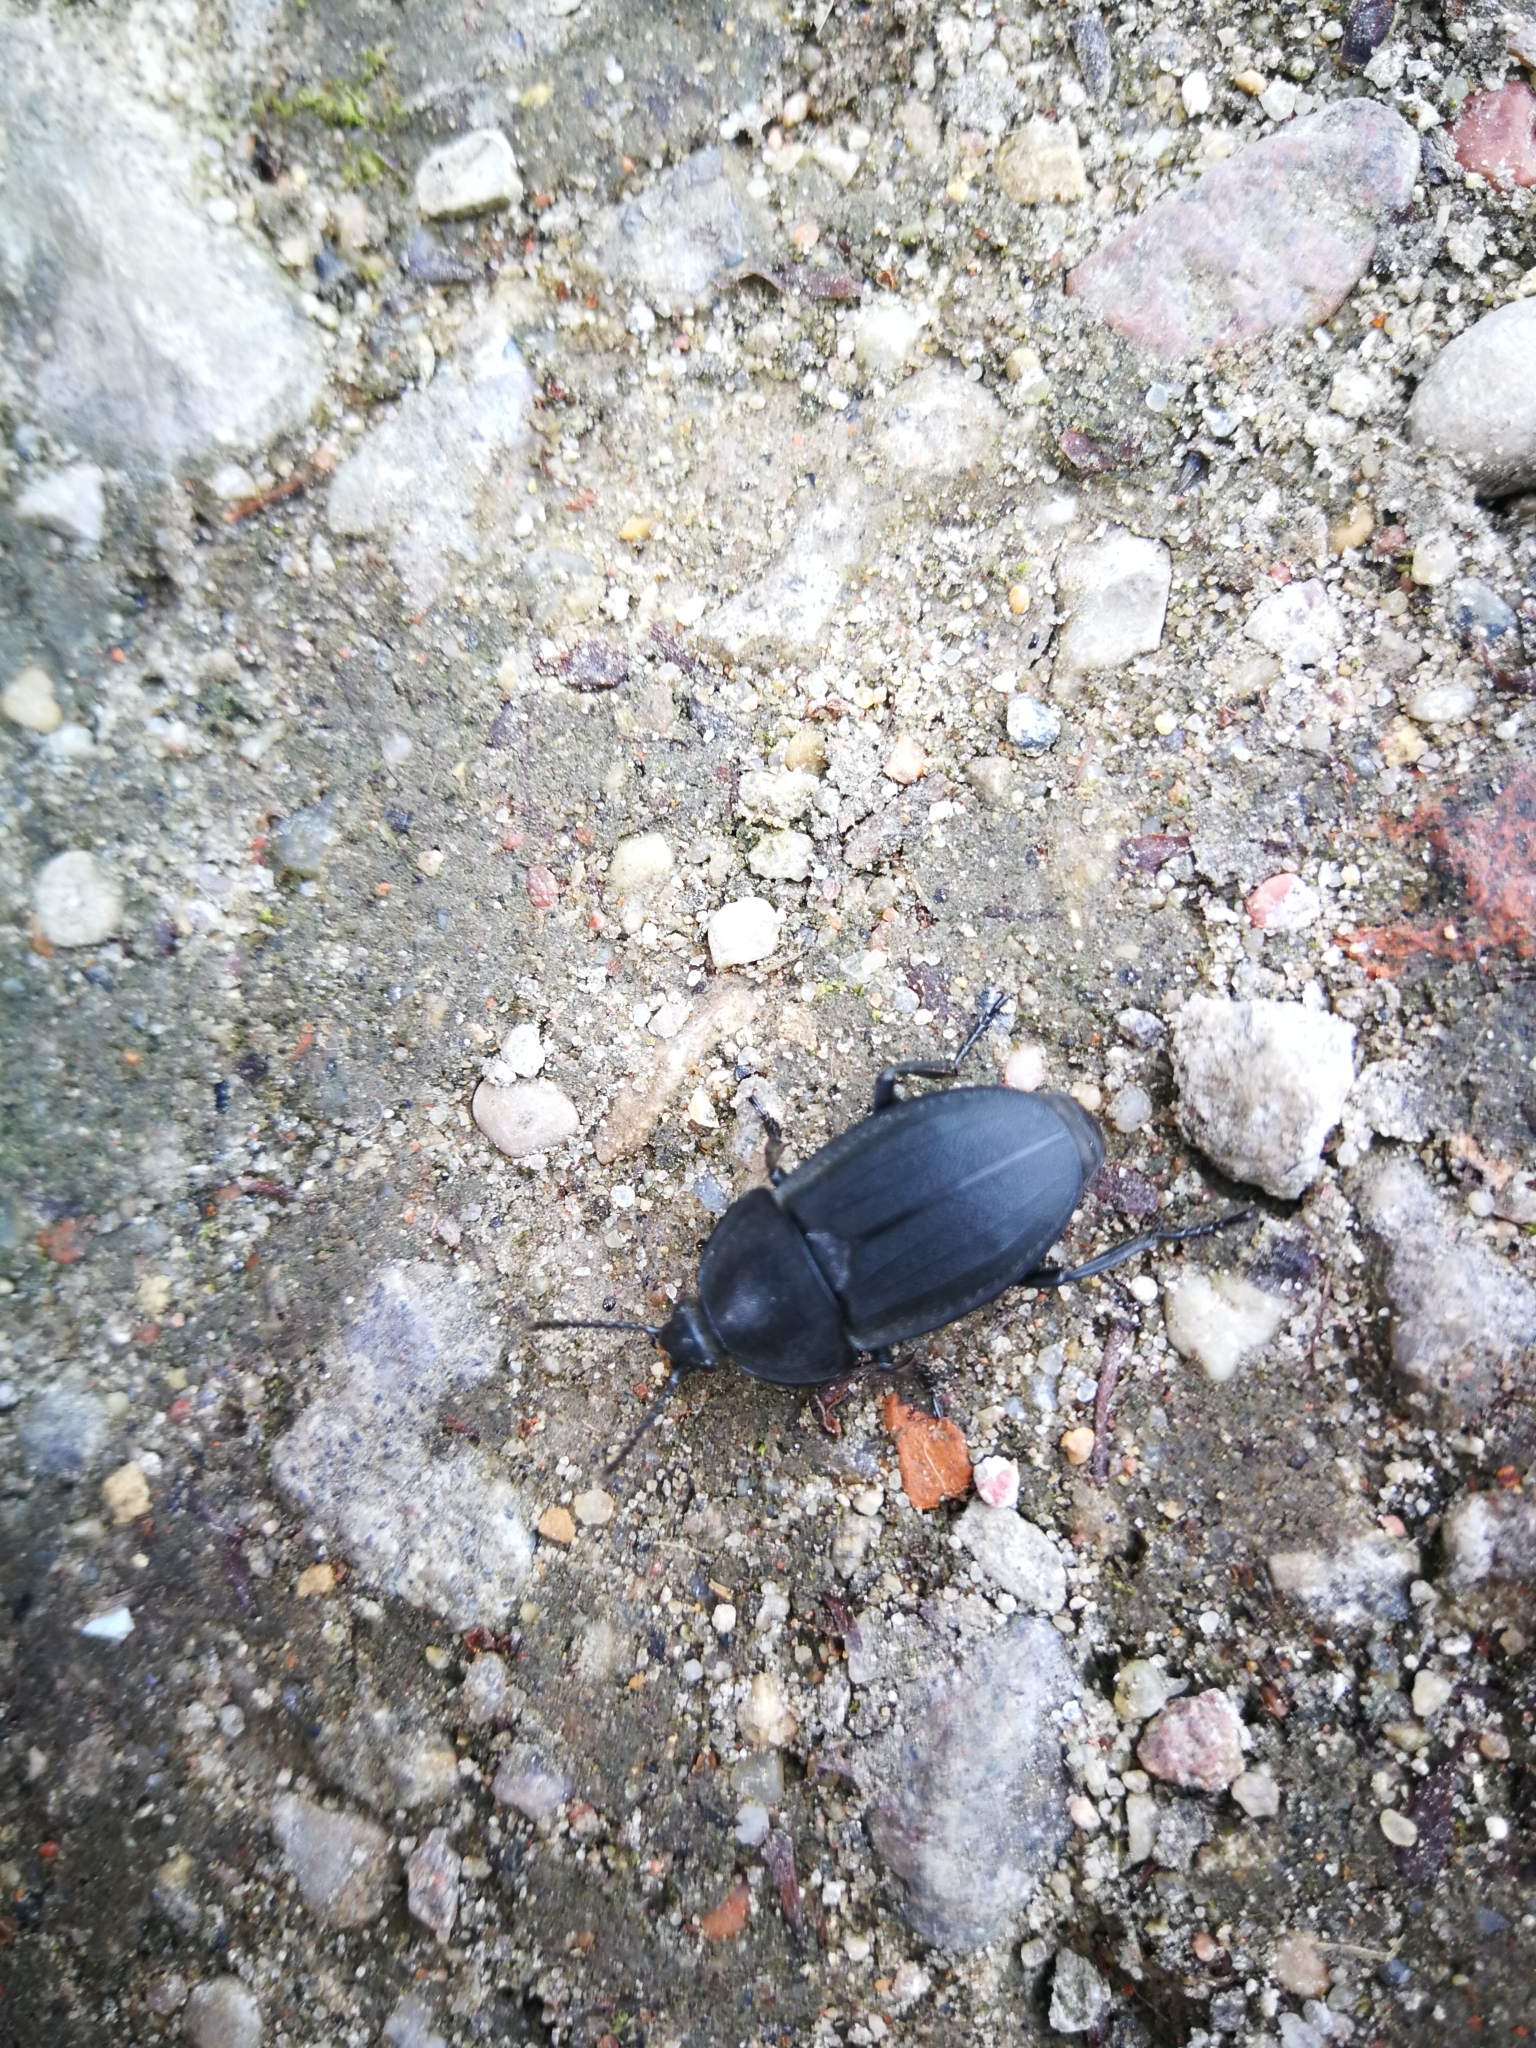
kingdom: Animalia
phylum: Arthropoda
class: Insecta
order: Coleoptera
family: Staphylinidae
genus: Silpha
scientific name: Silpha obscura
